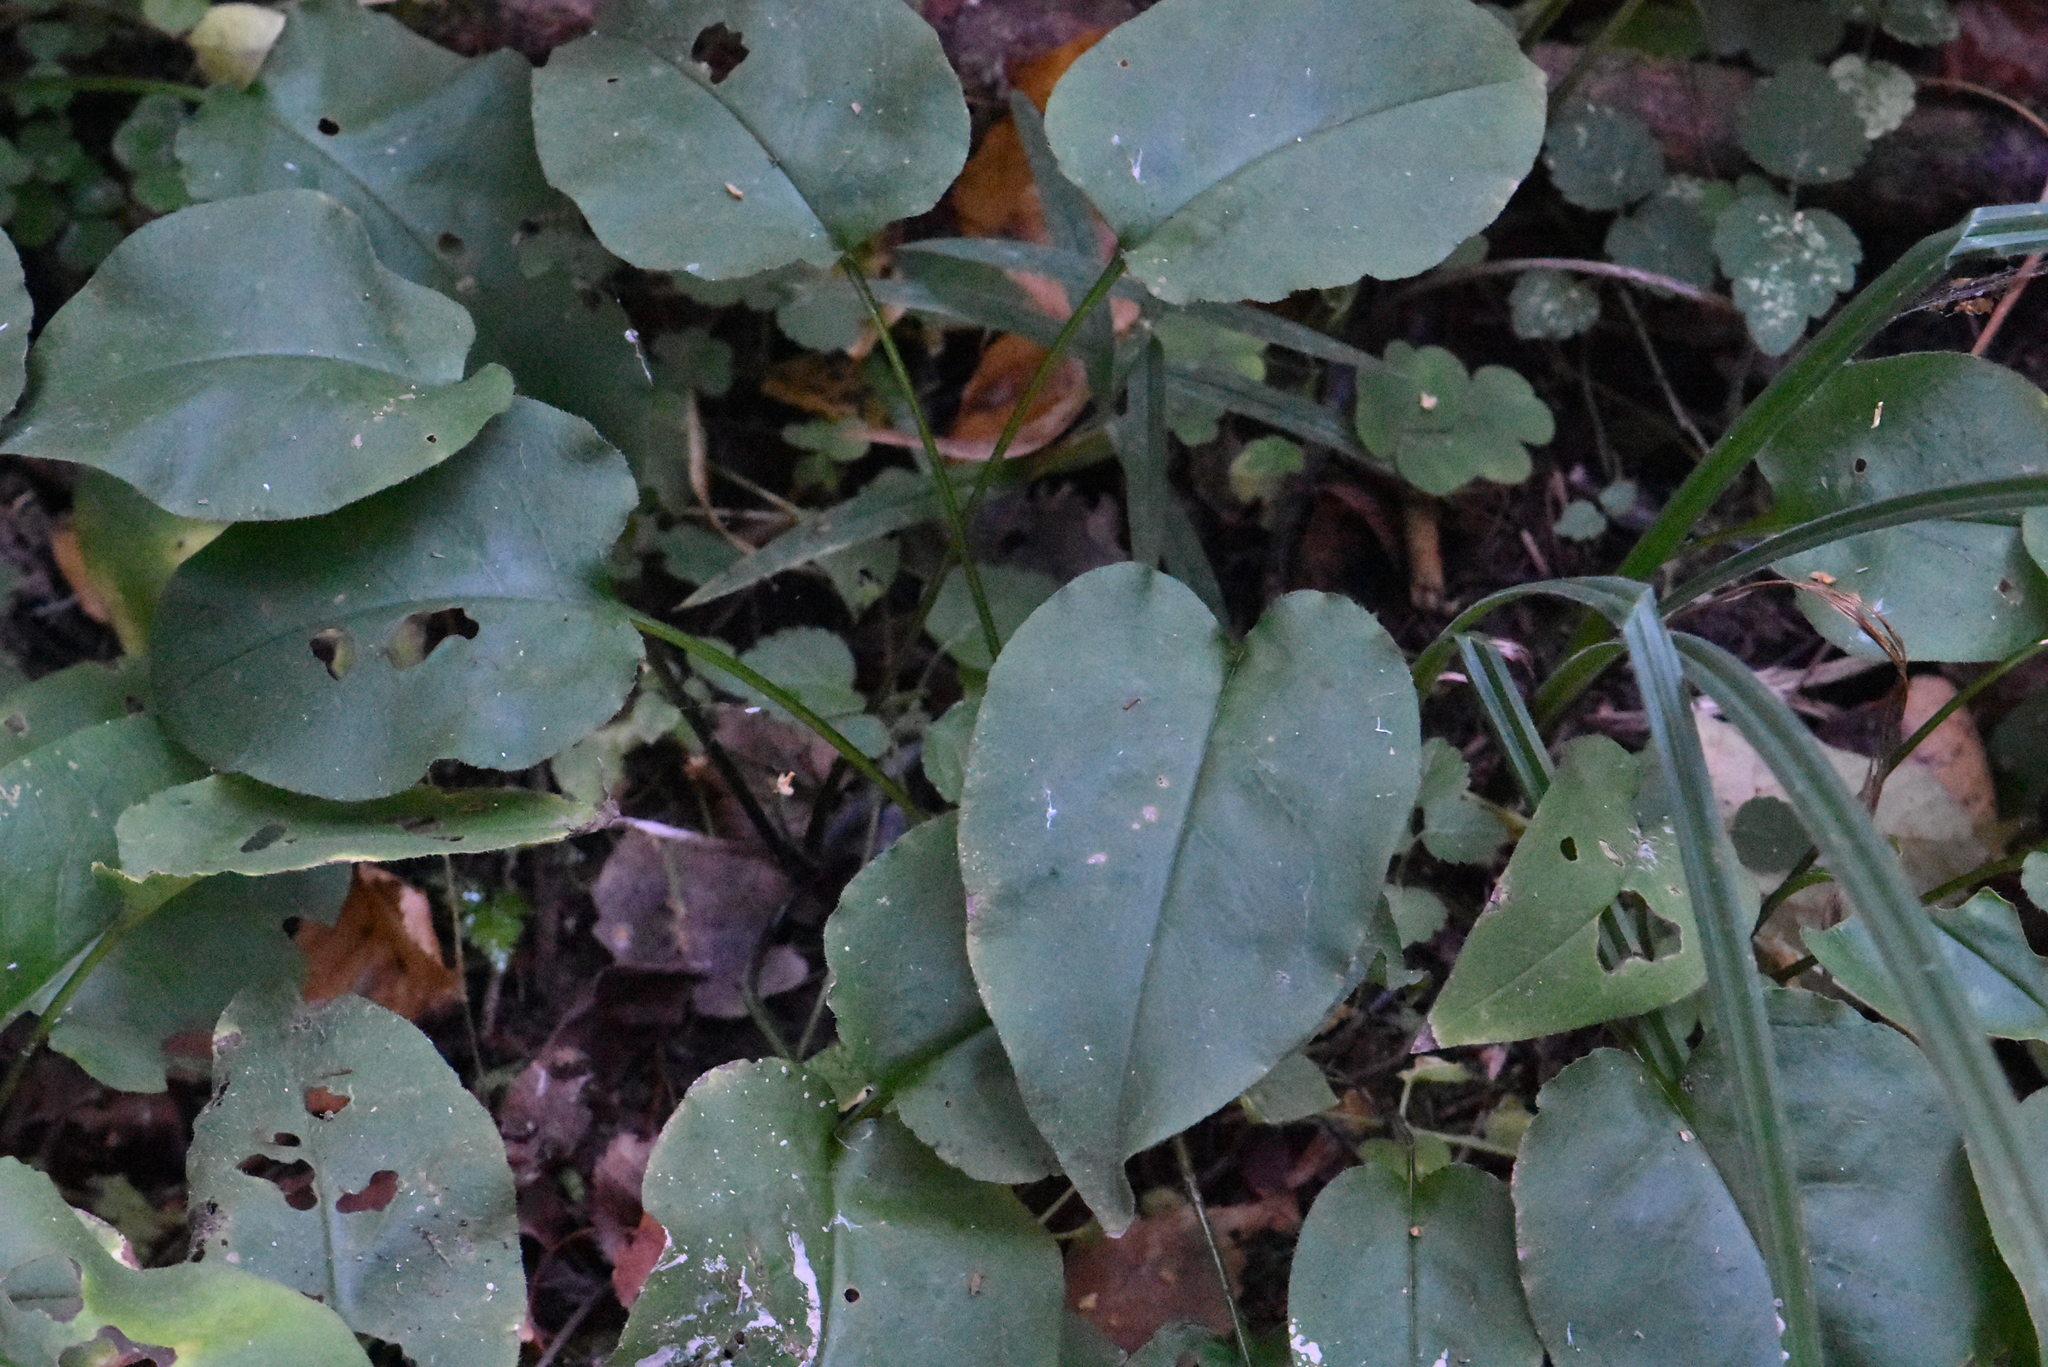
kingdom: Plantae
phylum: Tracheophyta
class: Magnoliopsida
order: Boraginales
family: Boraginaceae
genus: Pulmonaria
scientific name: Pulmonaria obscura
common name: Suffolk lungwort
